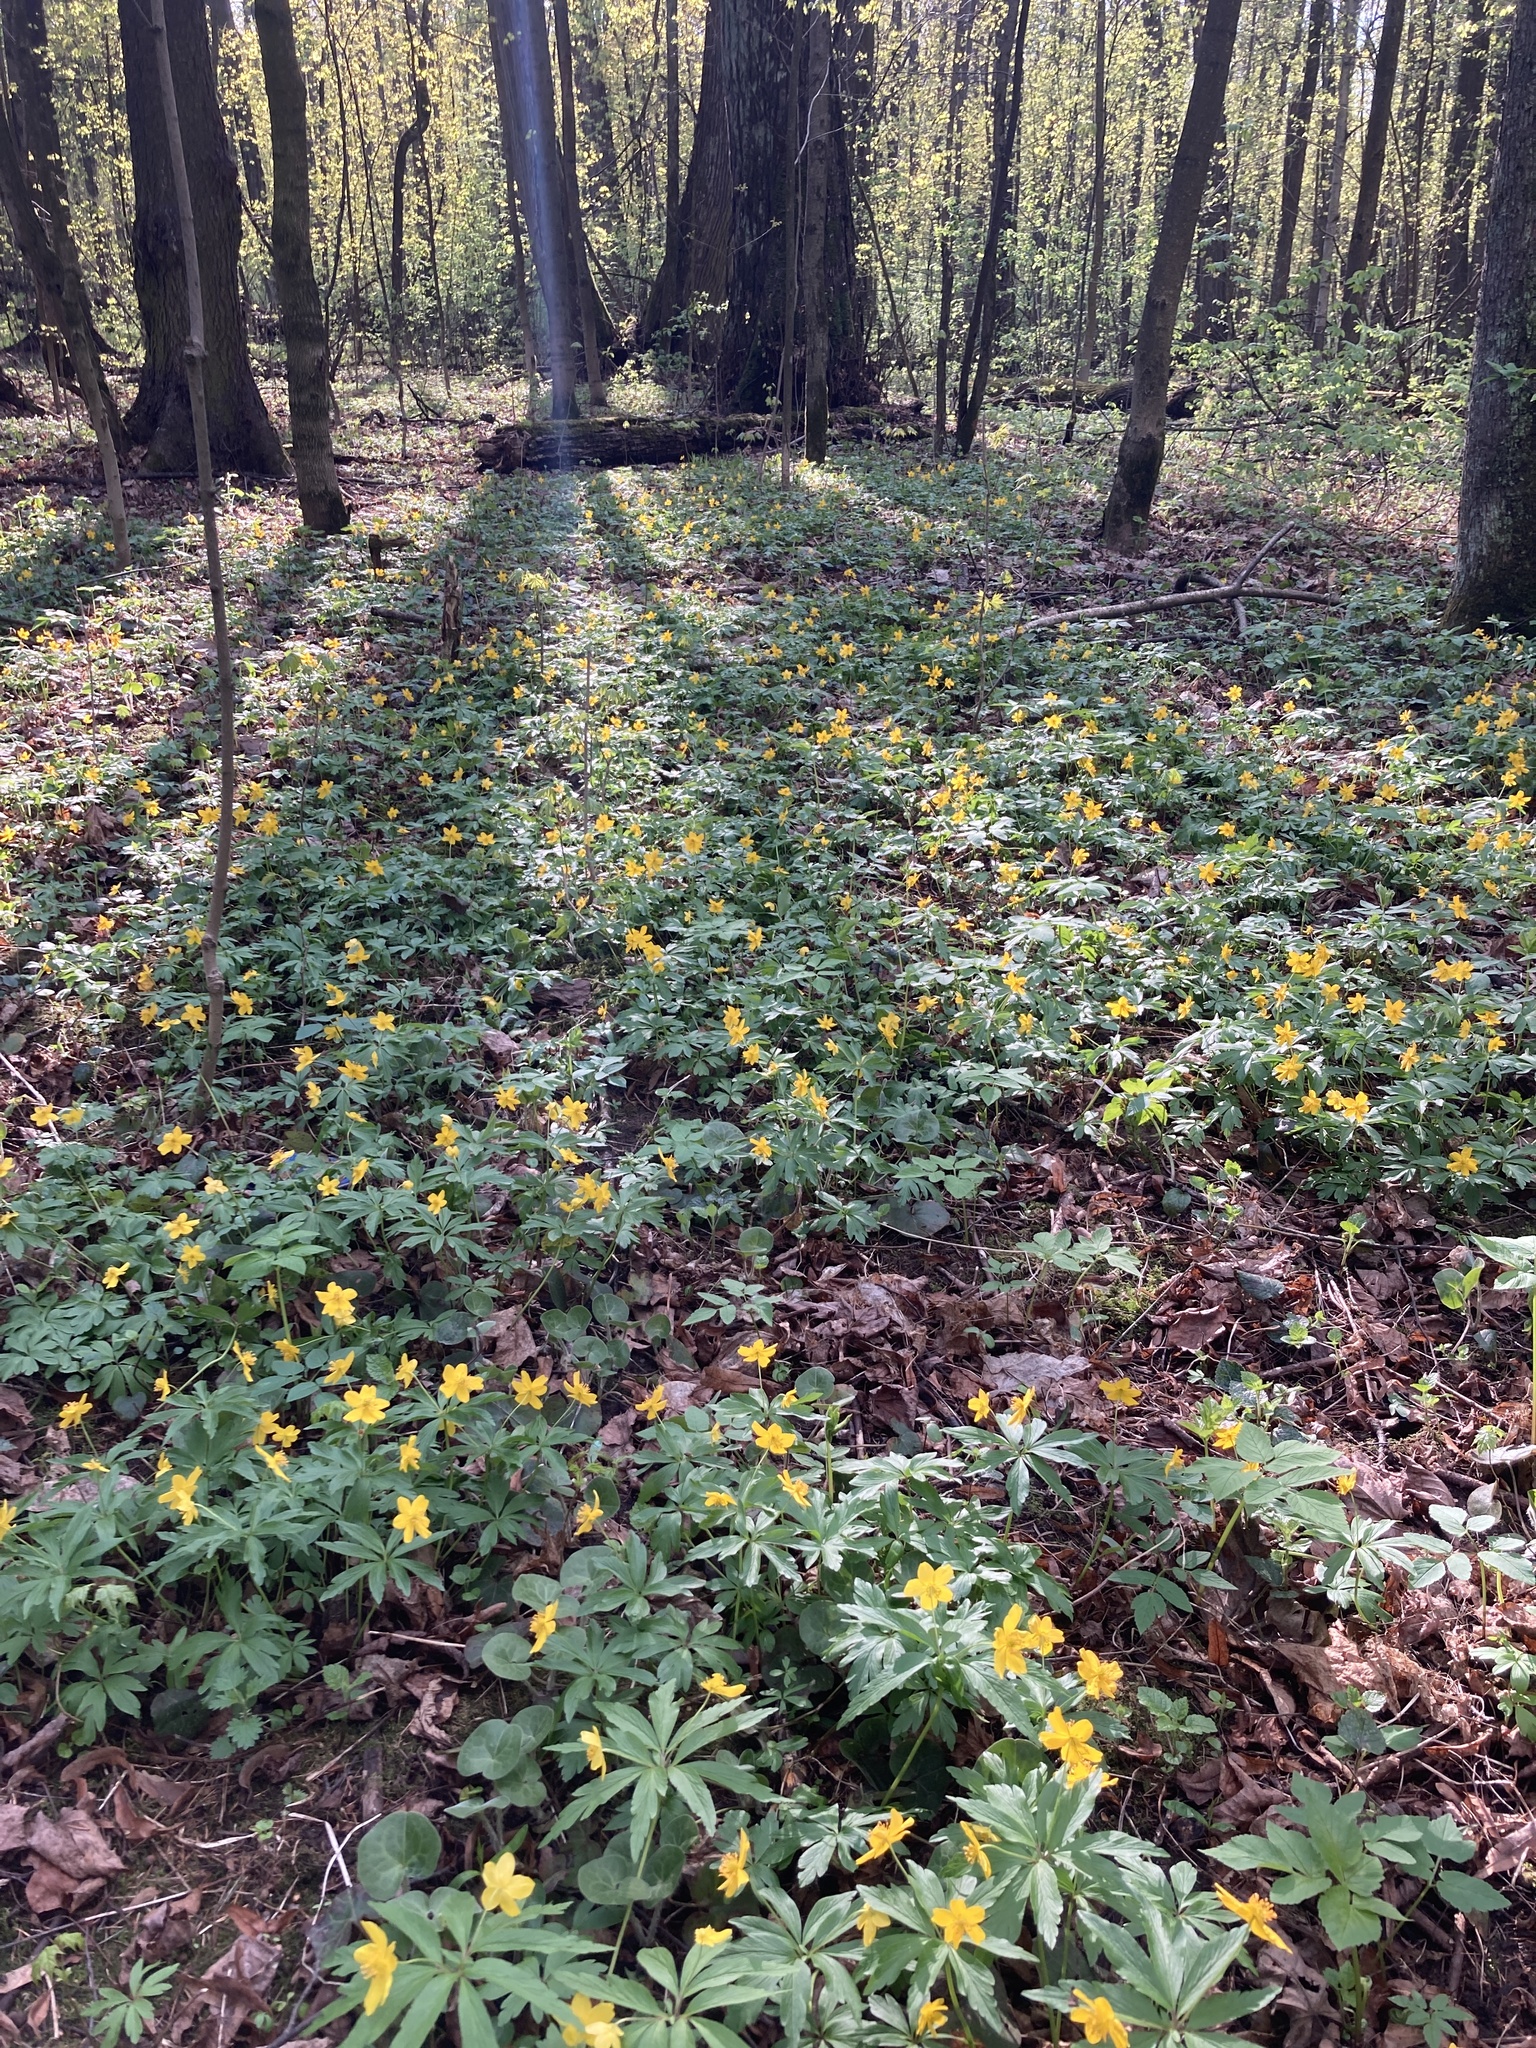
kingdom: Plantae
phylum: Tracheophyta
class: Magnoliopsida
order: Ranunculales
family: Ranunculaceae
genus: Anemone
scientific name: Anemone ranunculoides
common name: Yellow anemone
